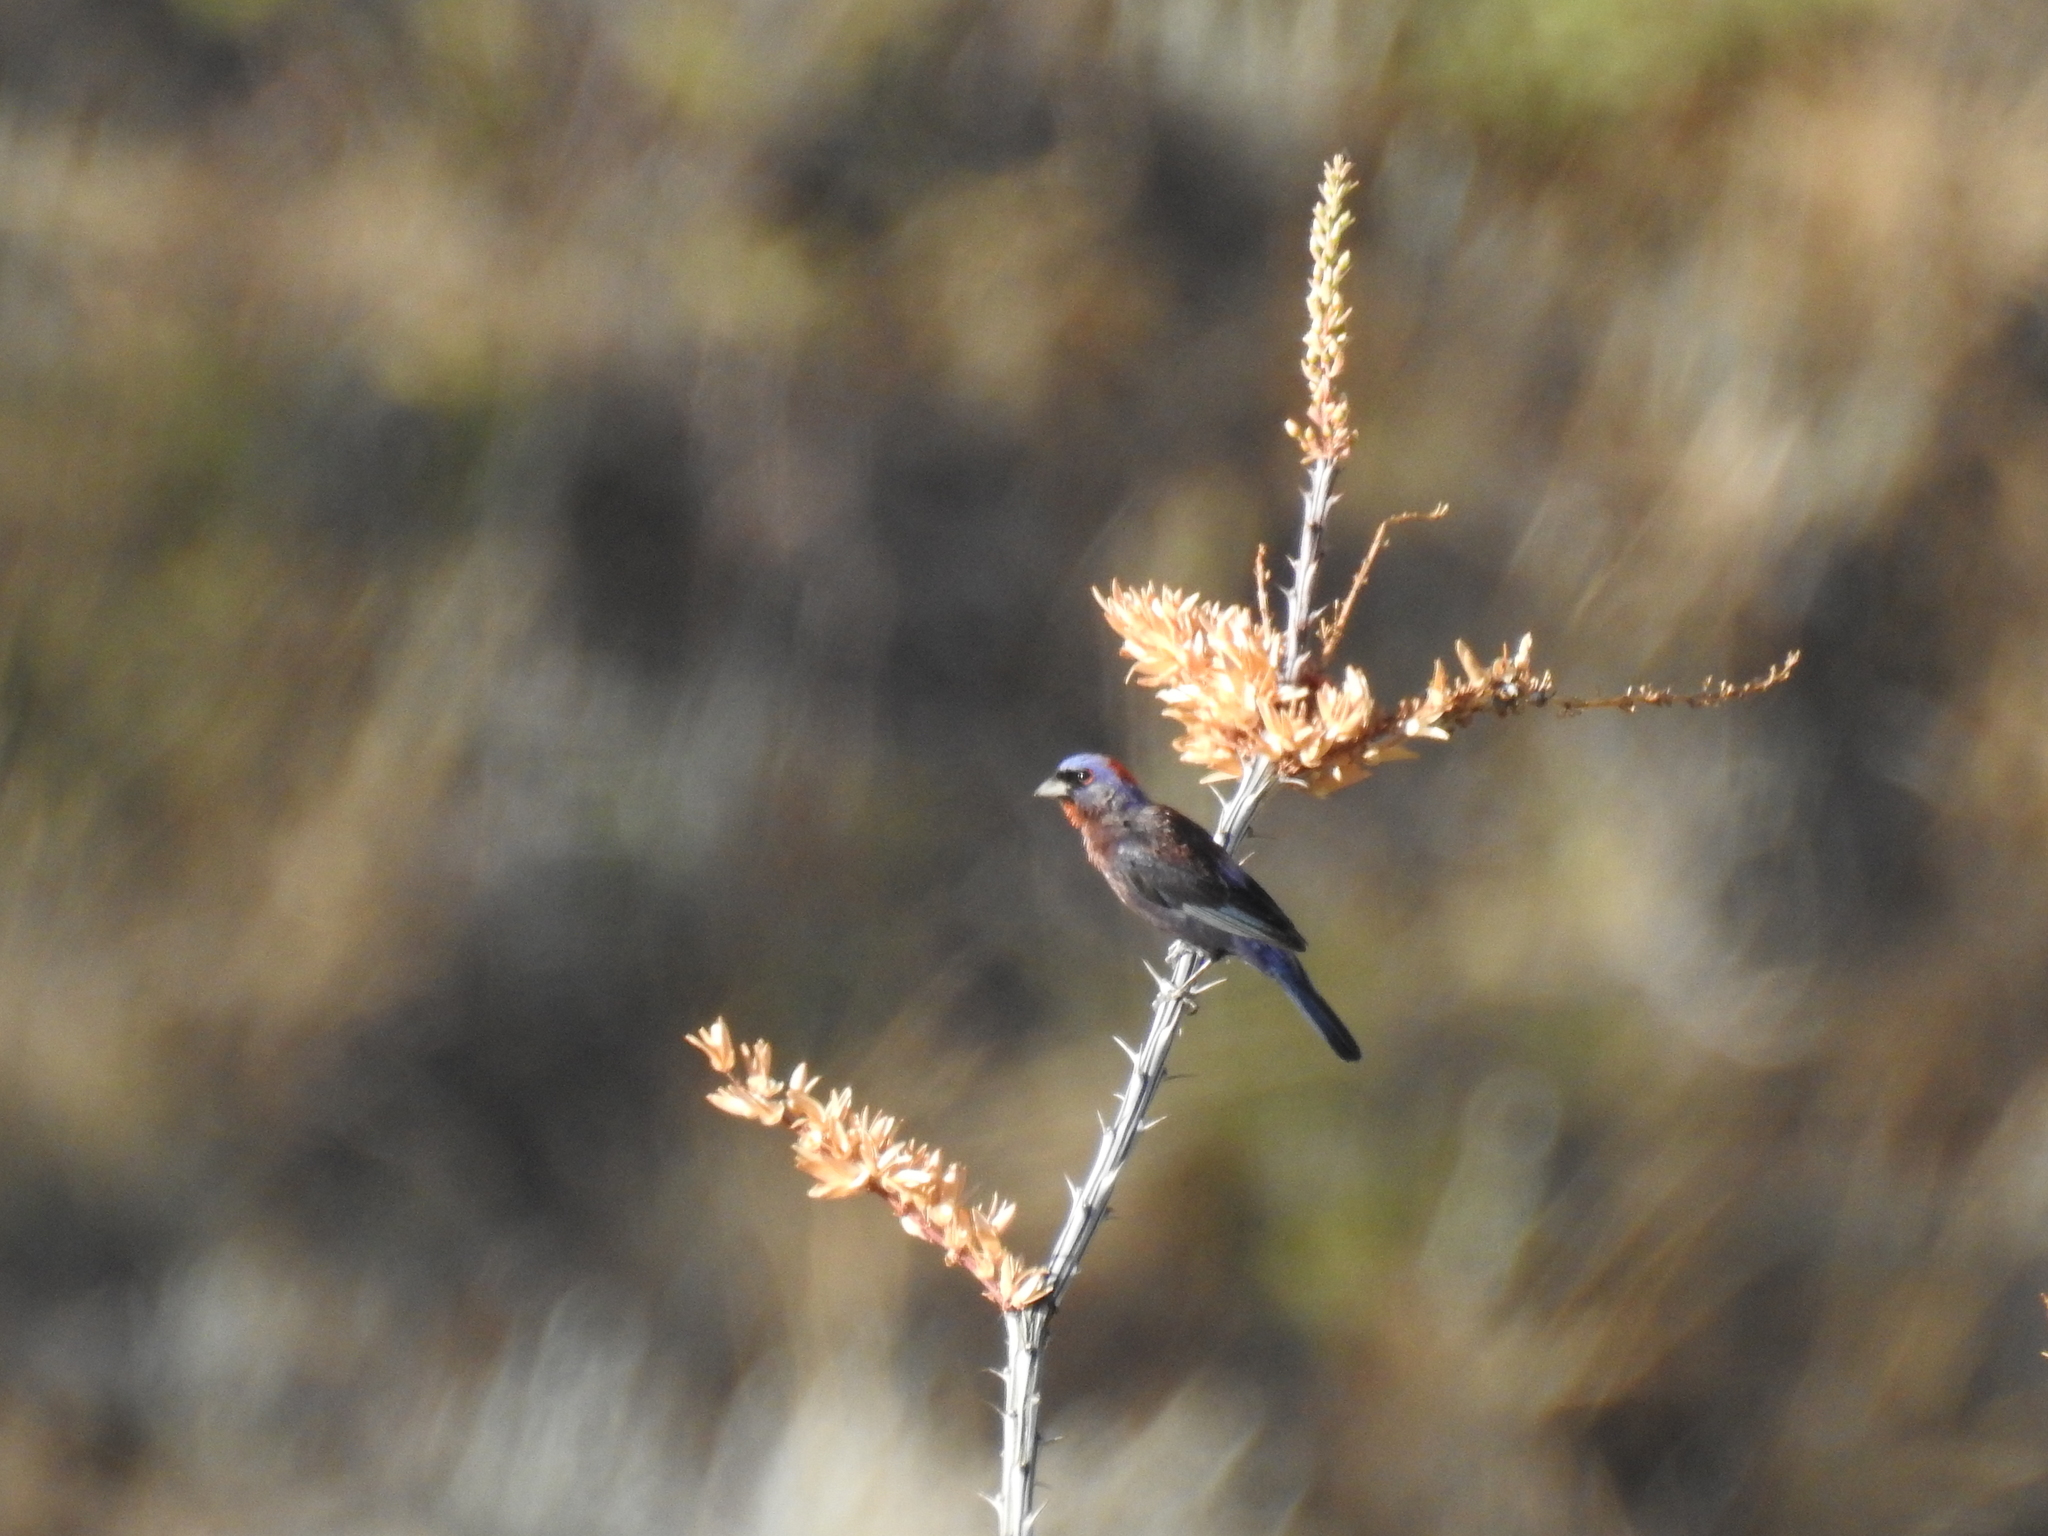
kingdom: Animalia
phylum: Chordata
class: Aves
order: Passeriformes
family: Cardinalidae
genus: Passerina
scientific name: Passerina versicolor
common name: Varied bunting
